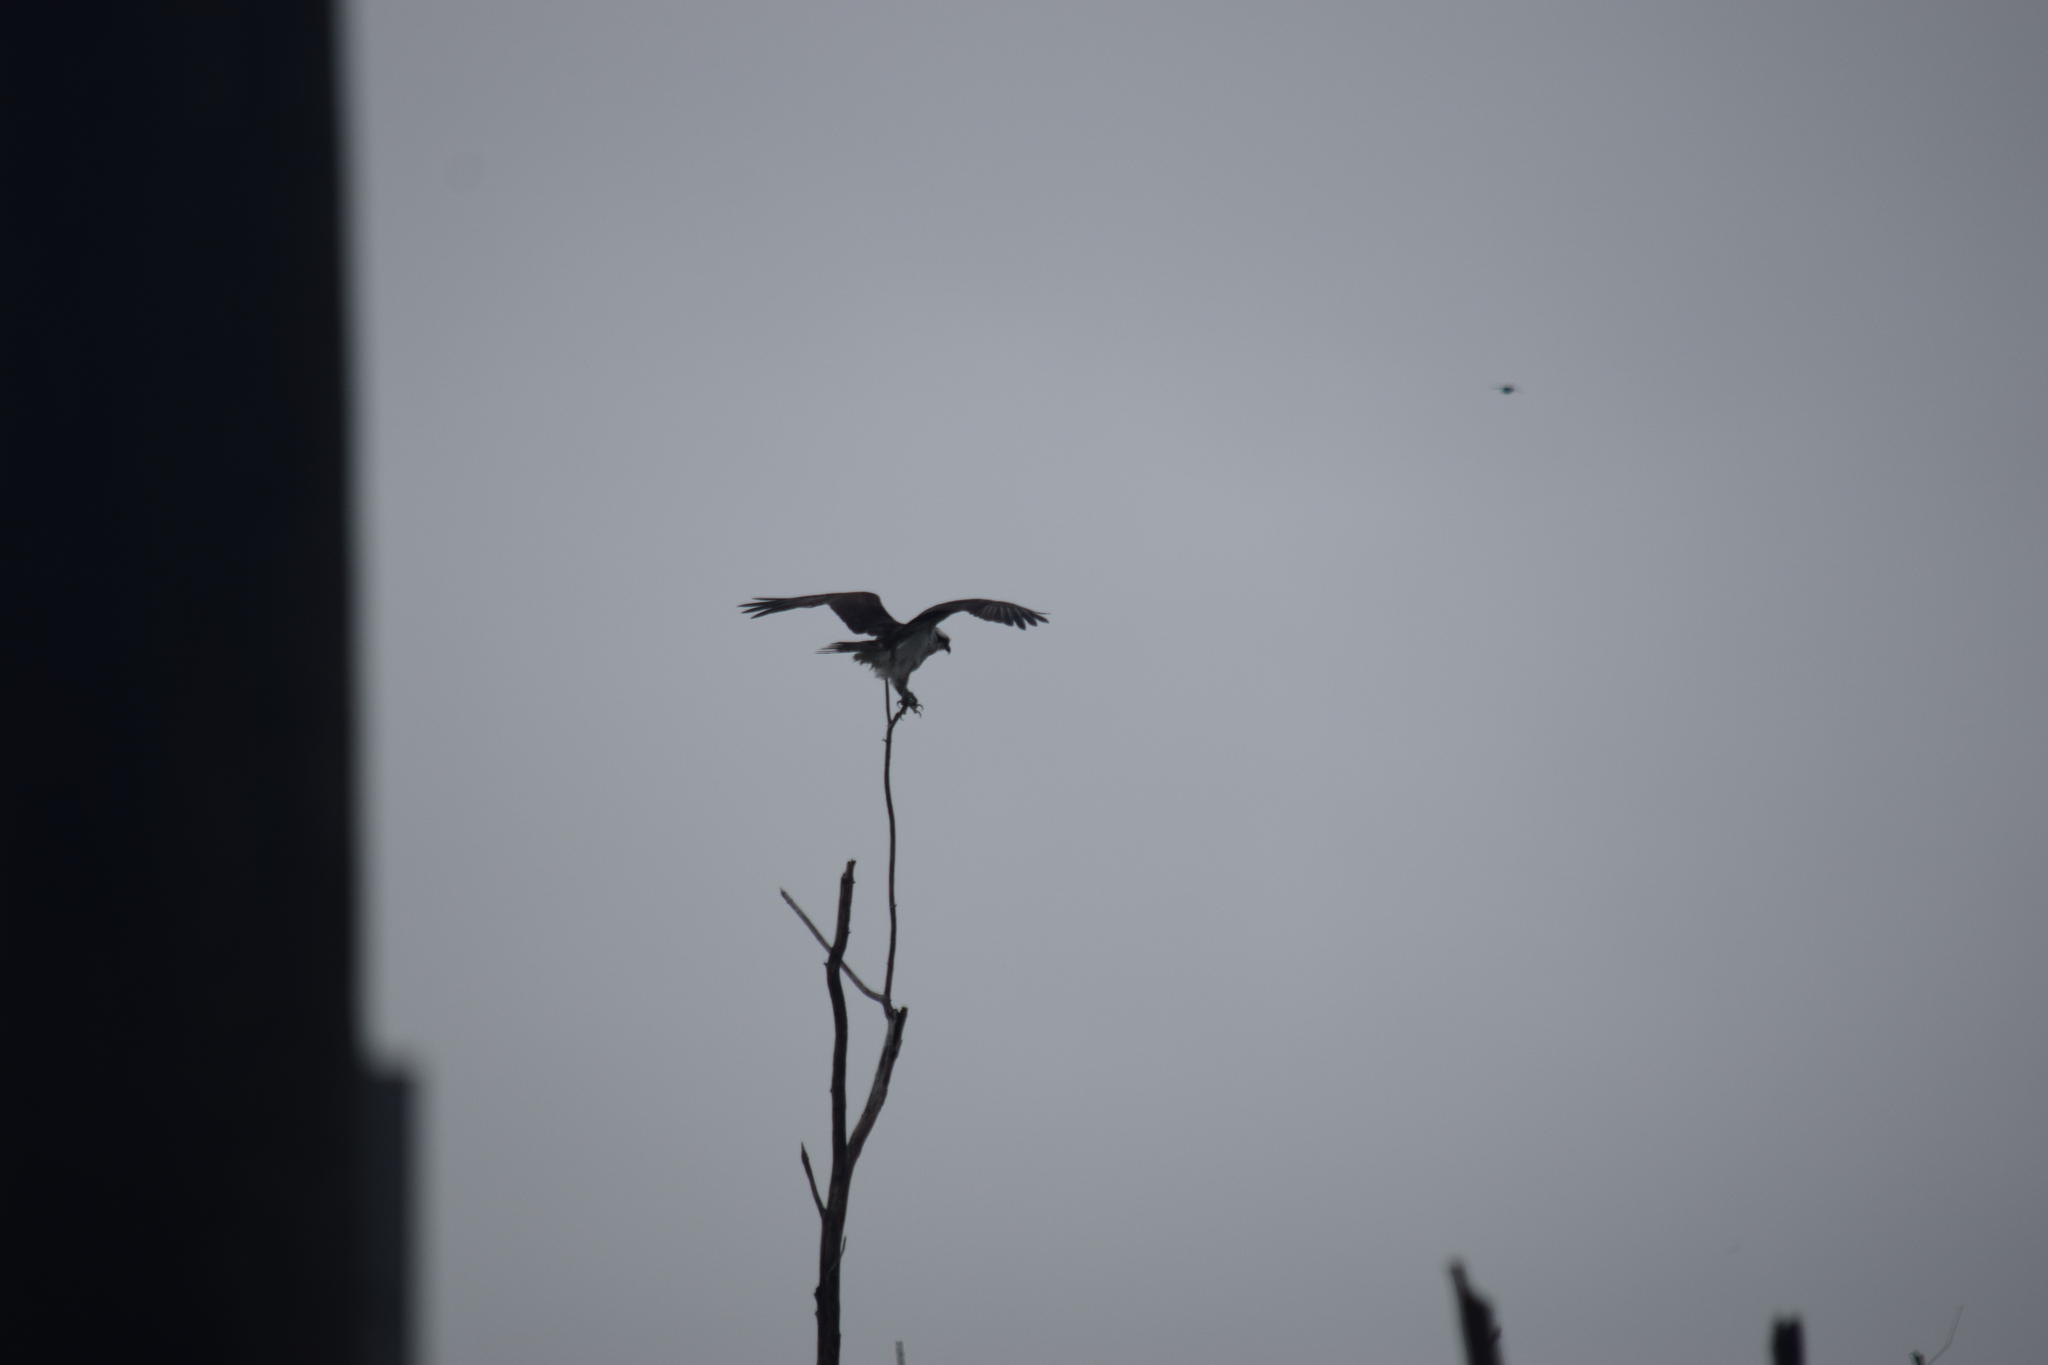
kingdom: Animalia
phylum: Chordata
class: Aves
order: Accipitriformes
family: Pandionidae
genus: Pandion
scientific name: Pandion haliaetus
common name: Osprey
